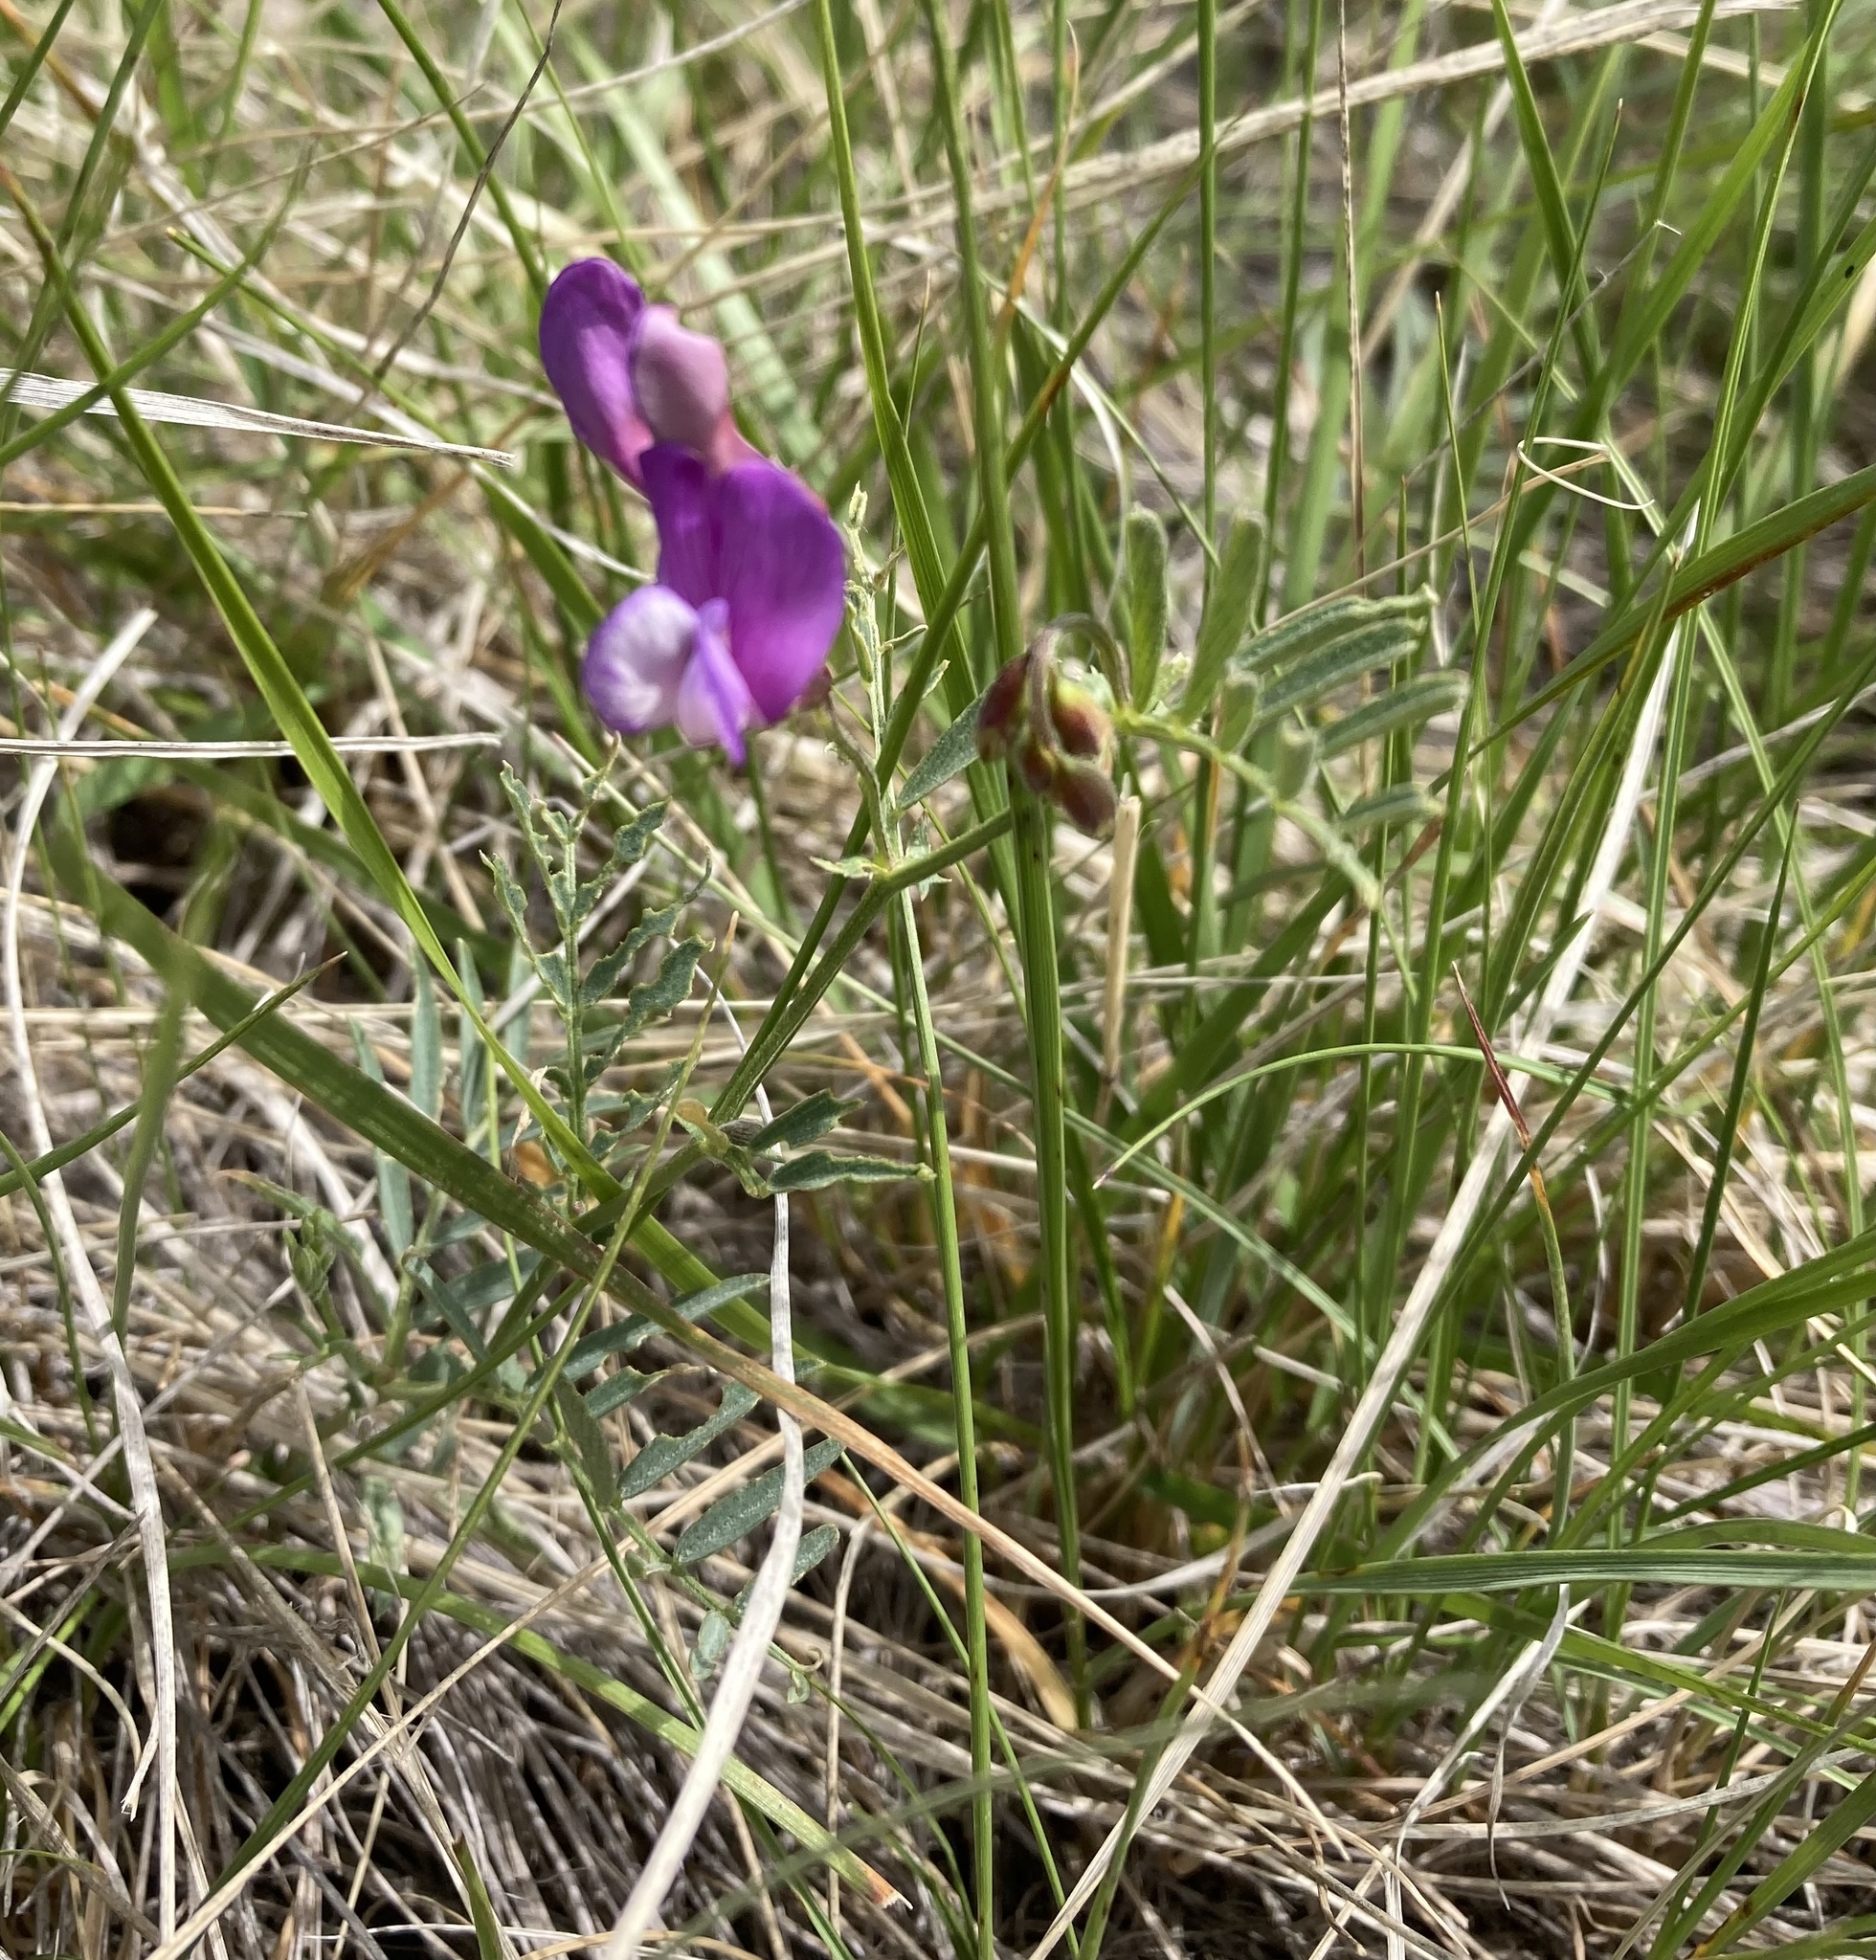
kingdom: Plantae
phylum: Tracheophyta
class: Magnoliopsida
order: Fabales
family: Fabaceae
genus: Vicia
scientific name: Vicia americana
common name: American vetch
